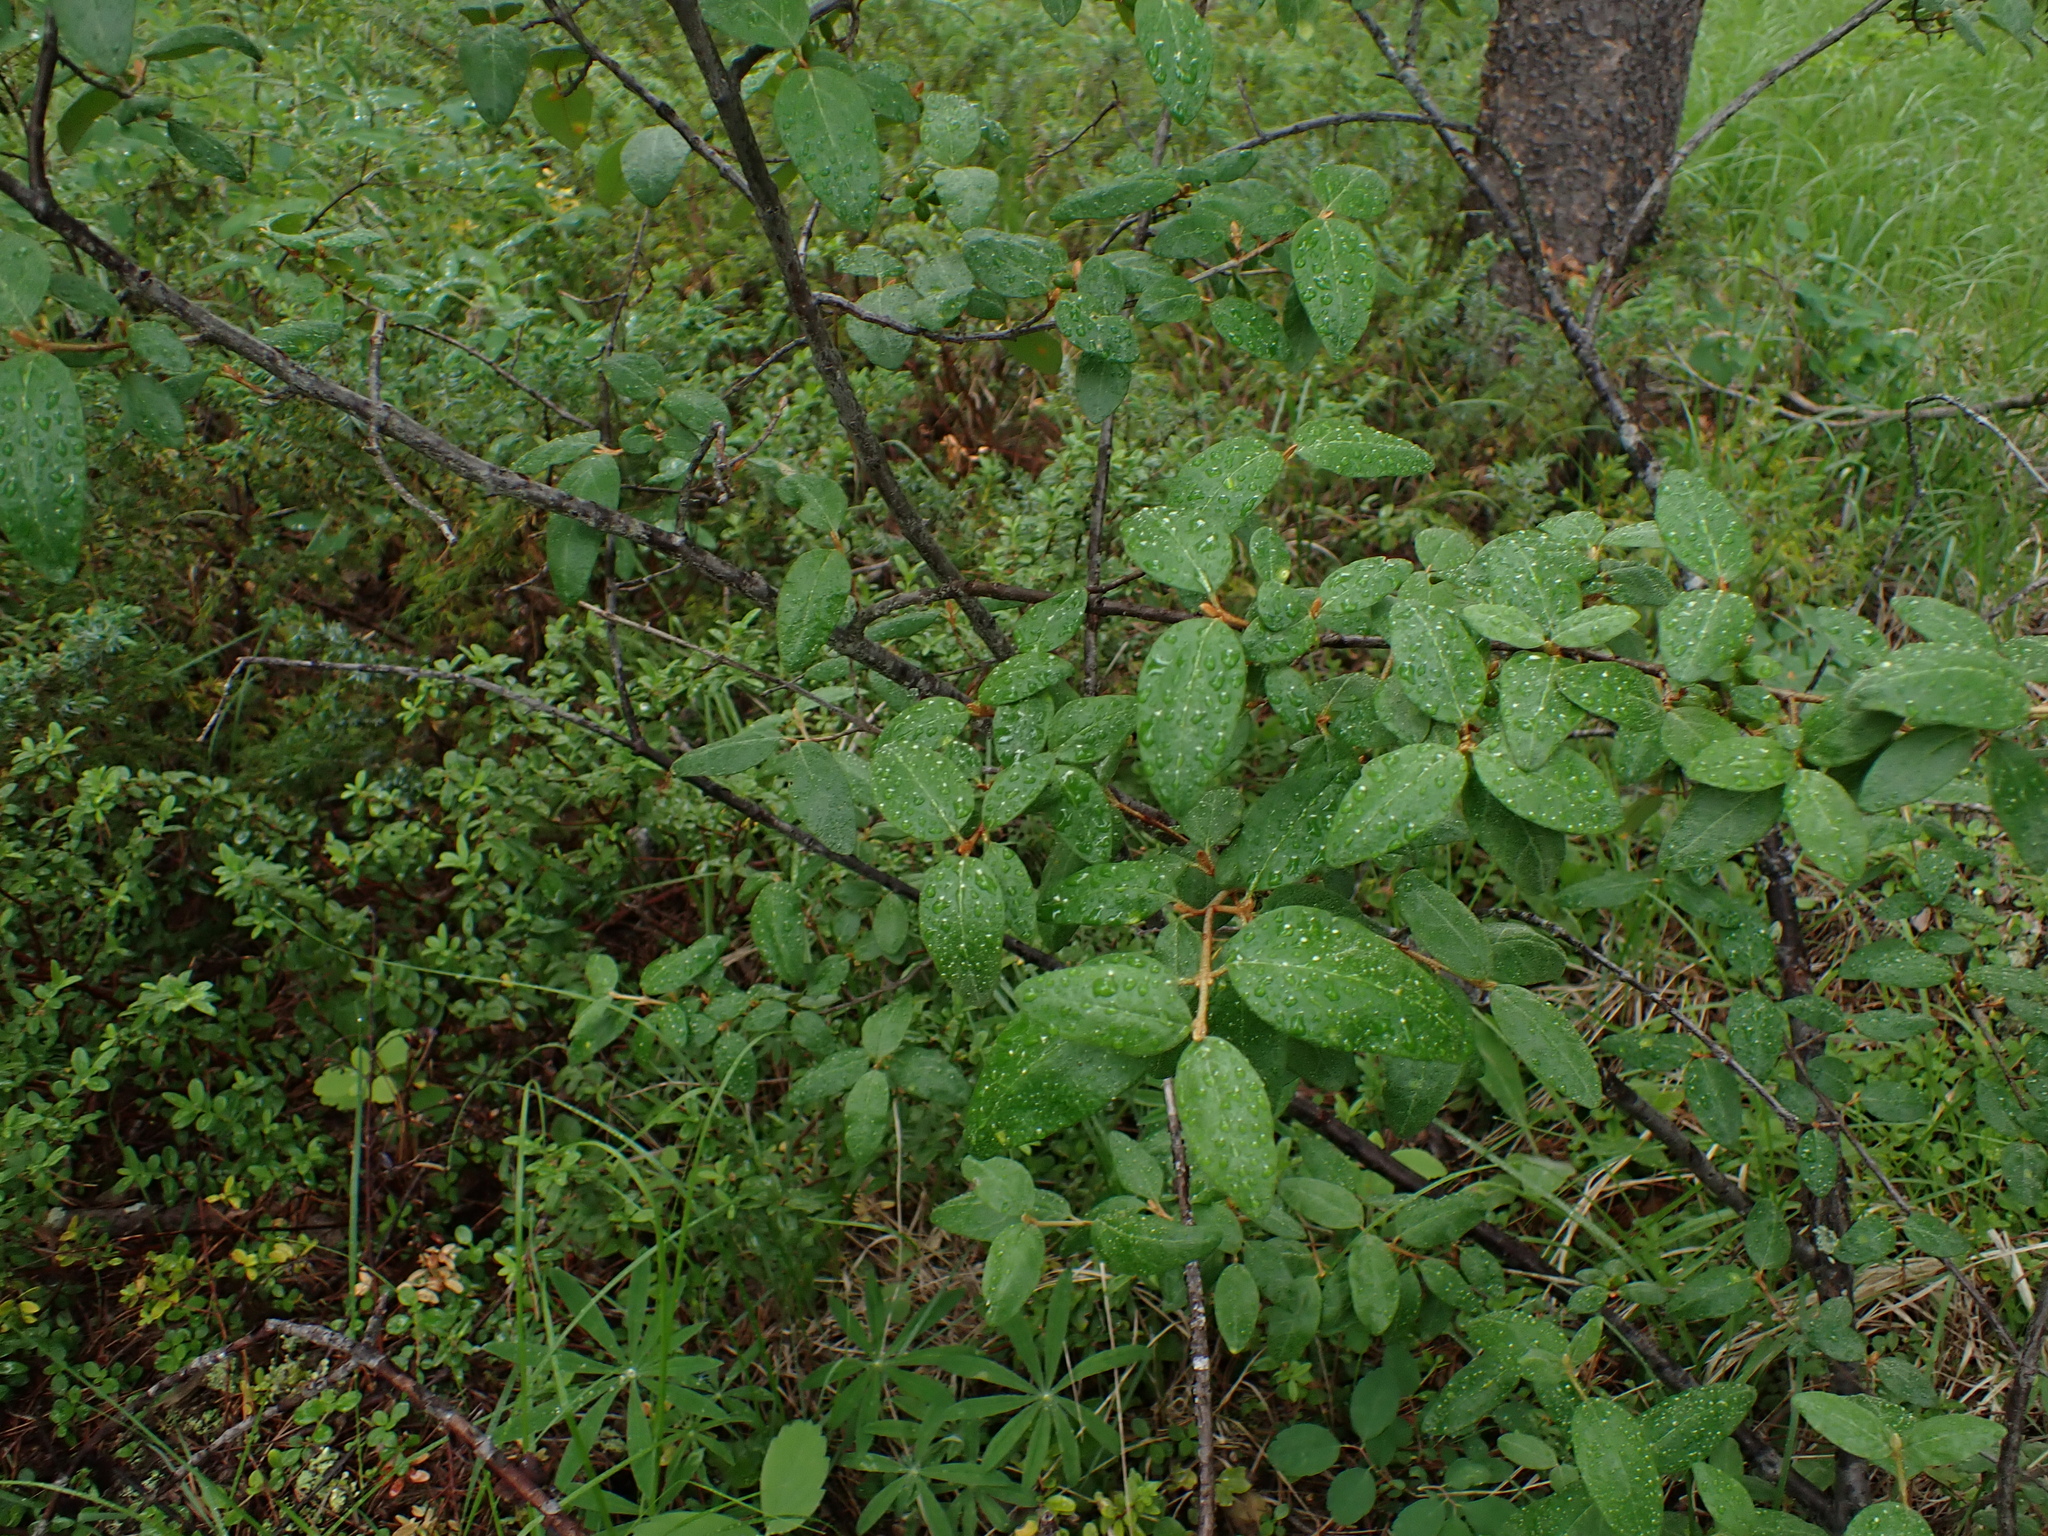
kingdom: Plantae
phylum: Tracheophyta
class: Magnoliopsida
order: Rosales
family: Elaeagnaceae
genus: Shepherdia
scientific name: Shepherdia canadensis
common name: Soapberry
